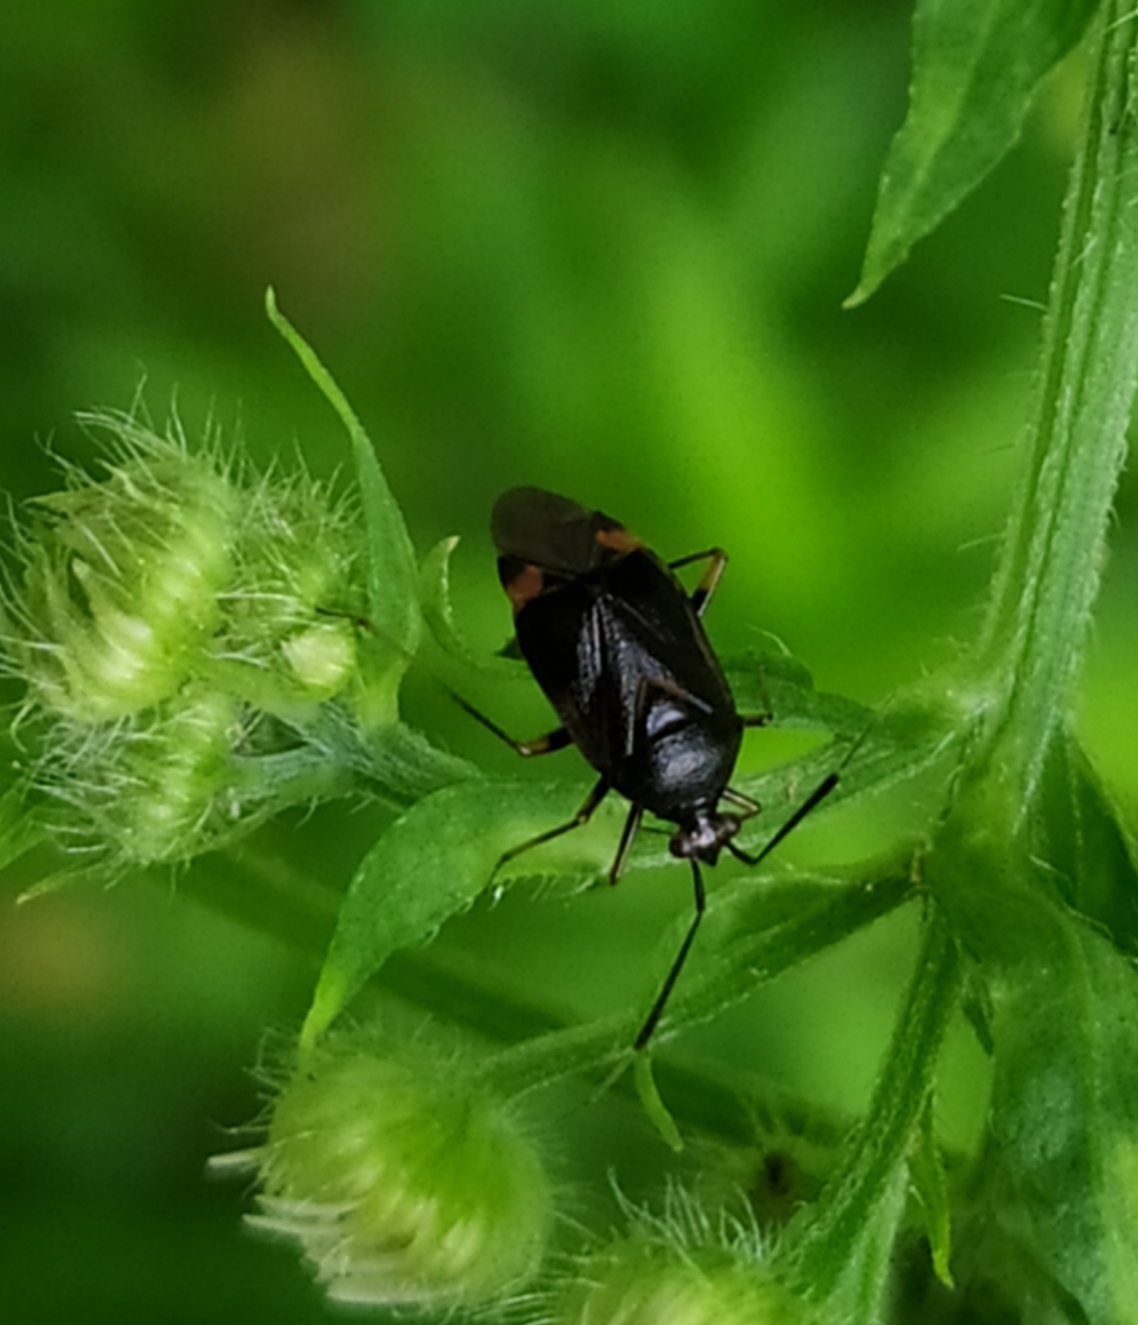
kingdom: Animalia
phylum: Arthropoda
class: Insecta
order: Hemiptera
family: Miridae
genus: Deraeocoris
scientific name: Deraeocoris ruber
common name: Plant bug
